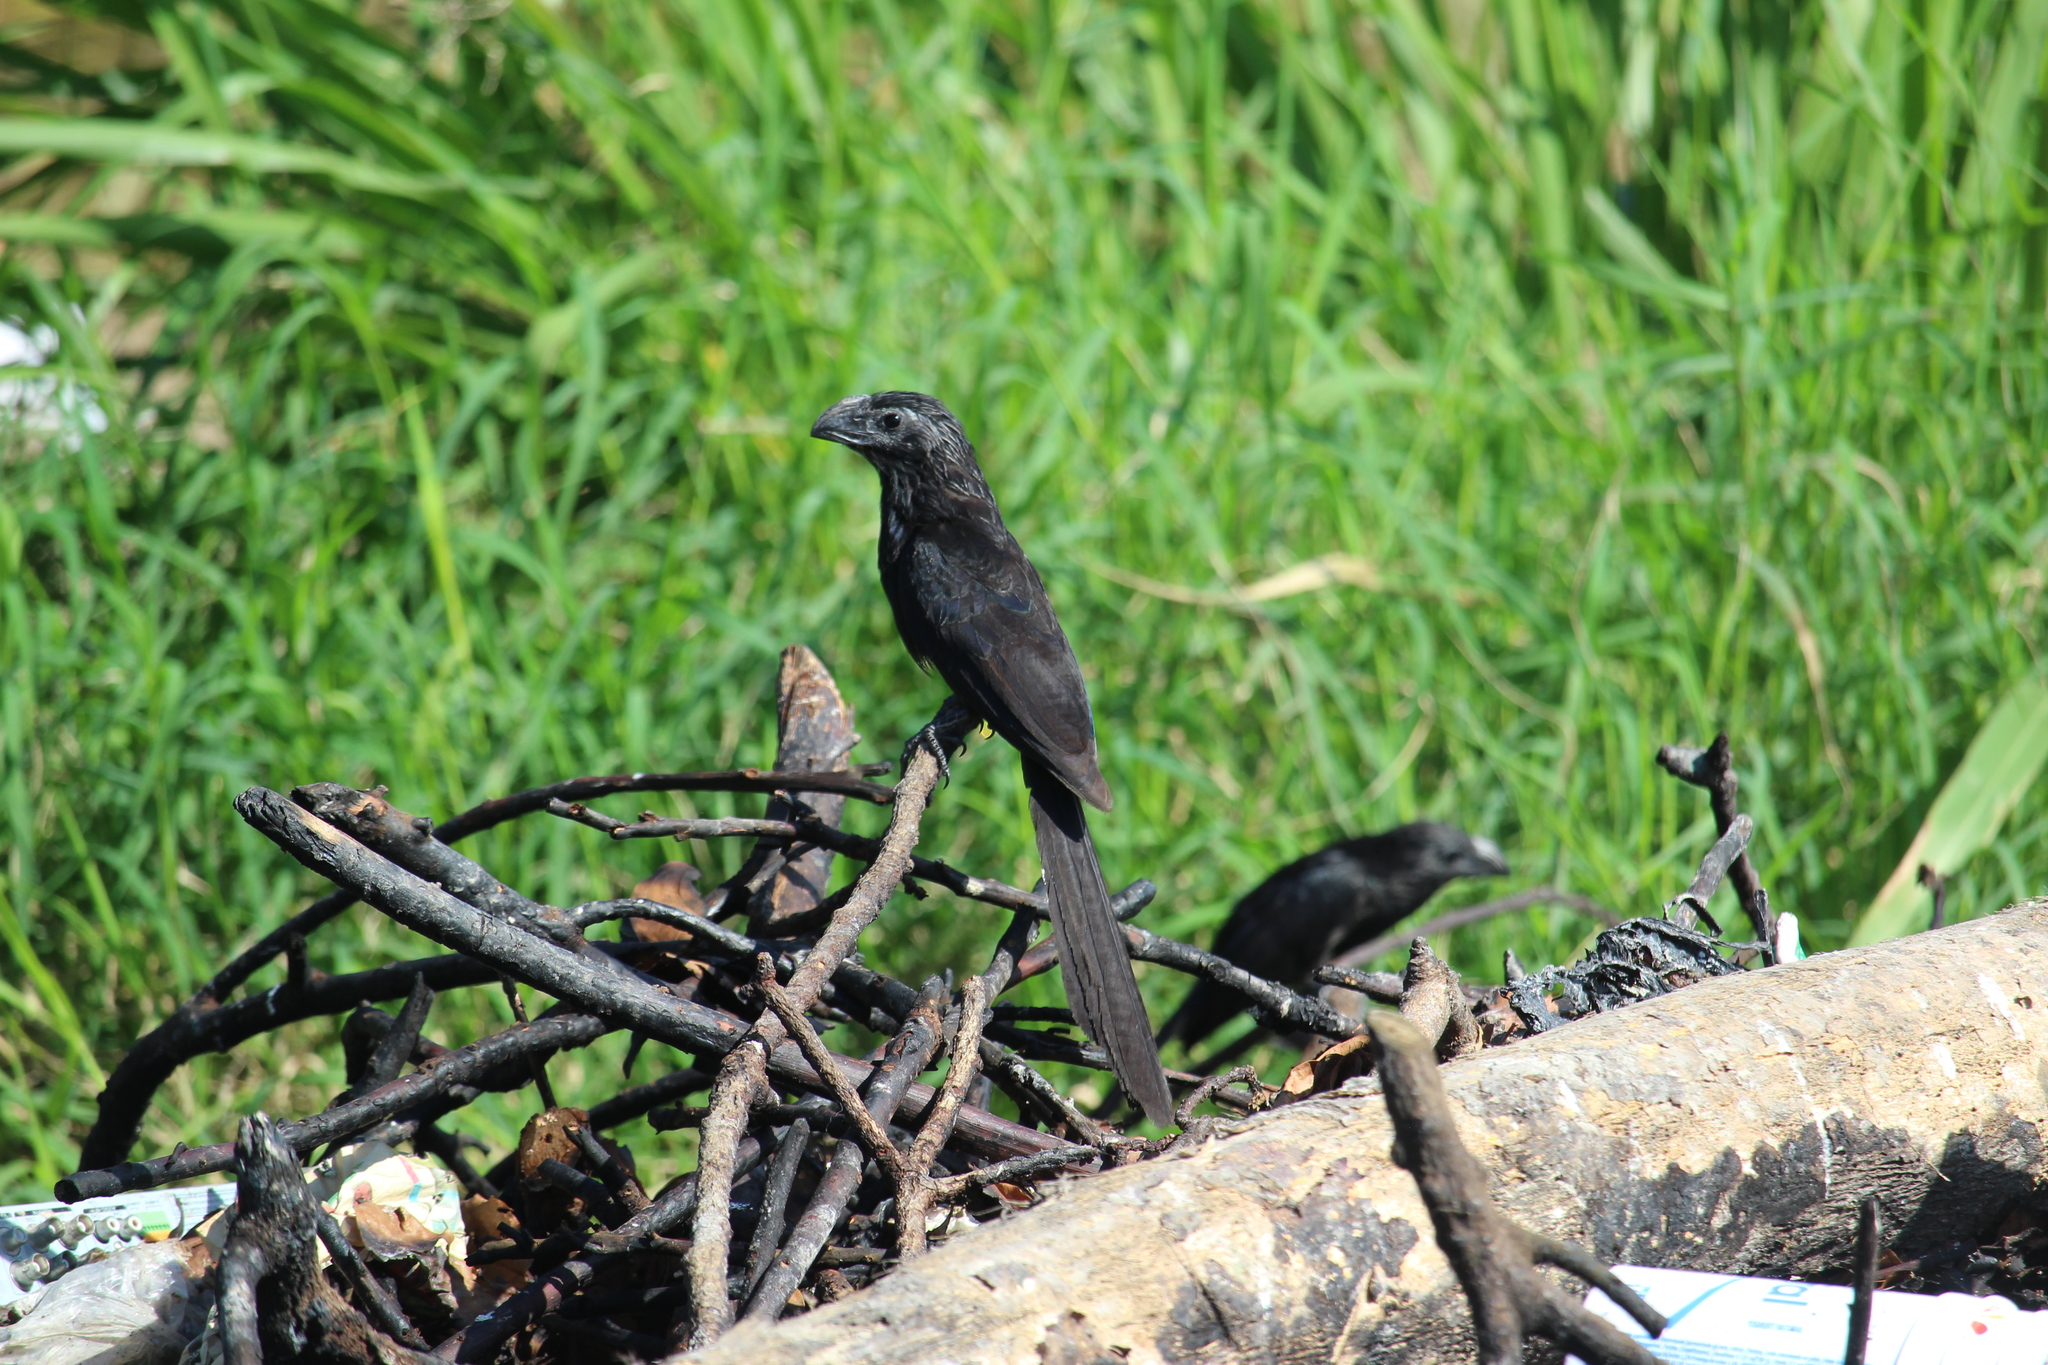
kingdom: Animalia
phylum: Chordata
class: Aves
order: Cuculiformes
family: Cuculidae
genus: Crotophaga
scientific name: Crotophaga sulcirostris
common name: Groove-billed ani
